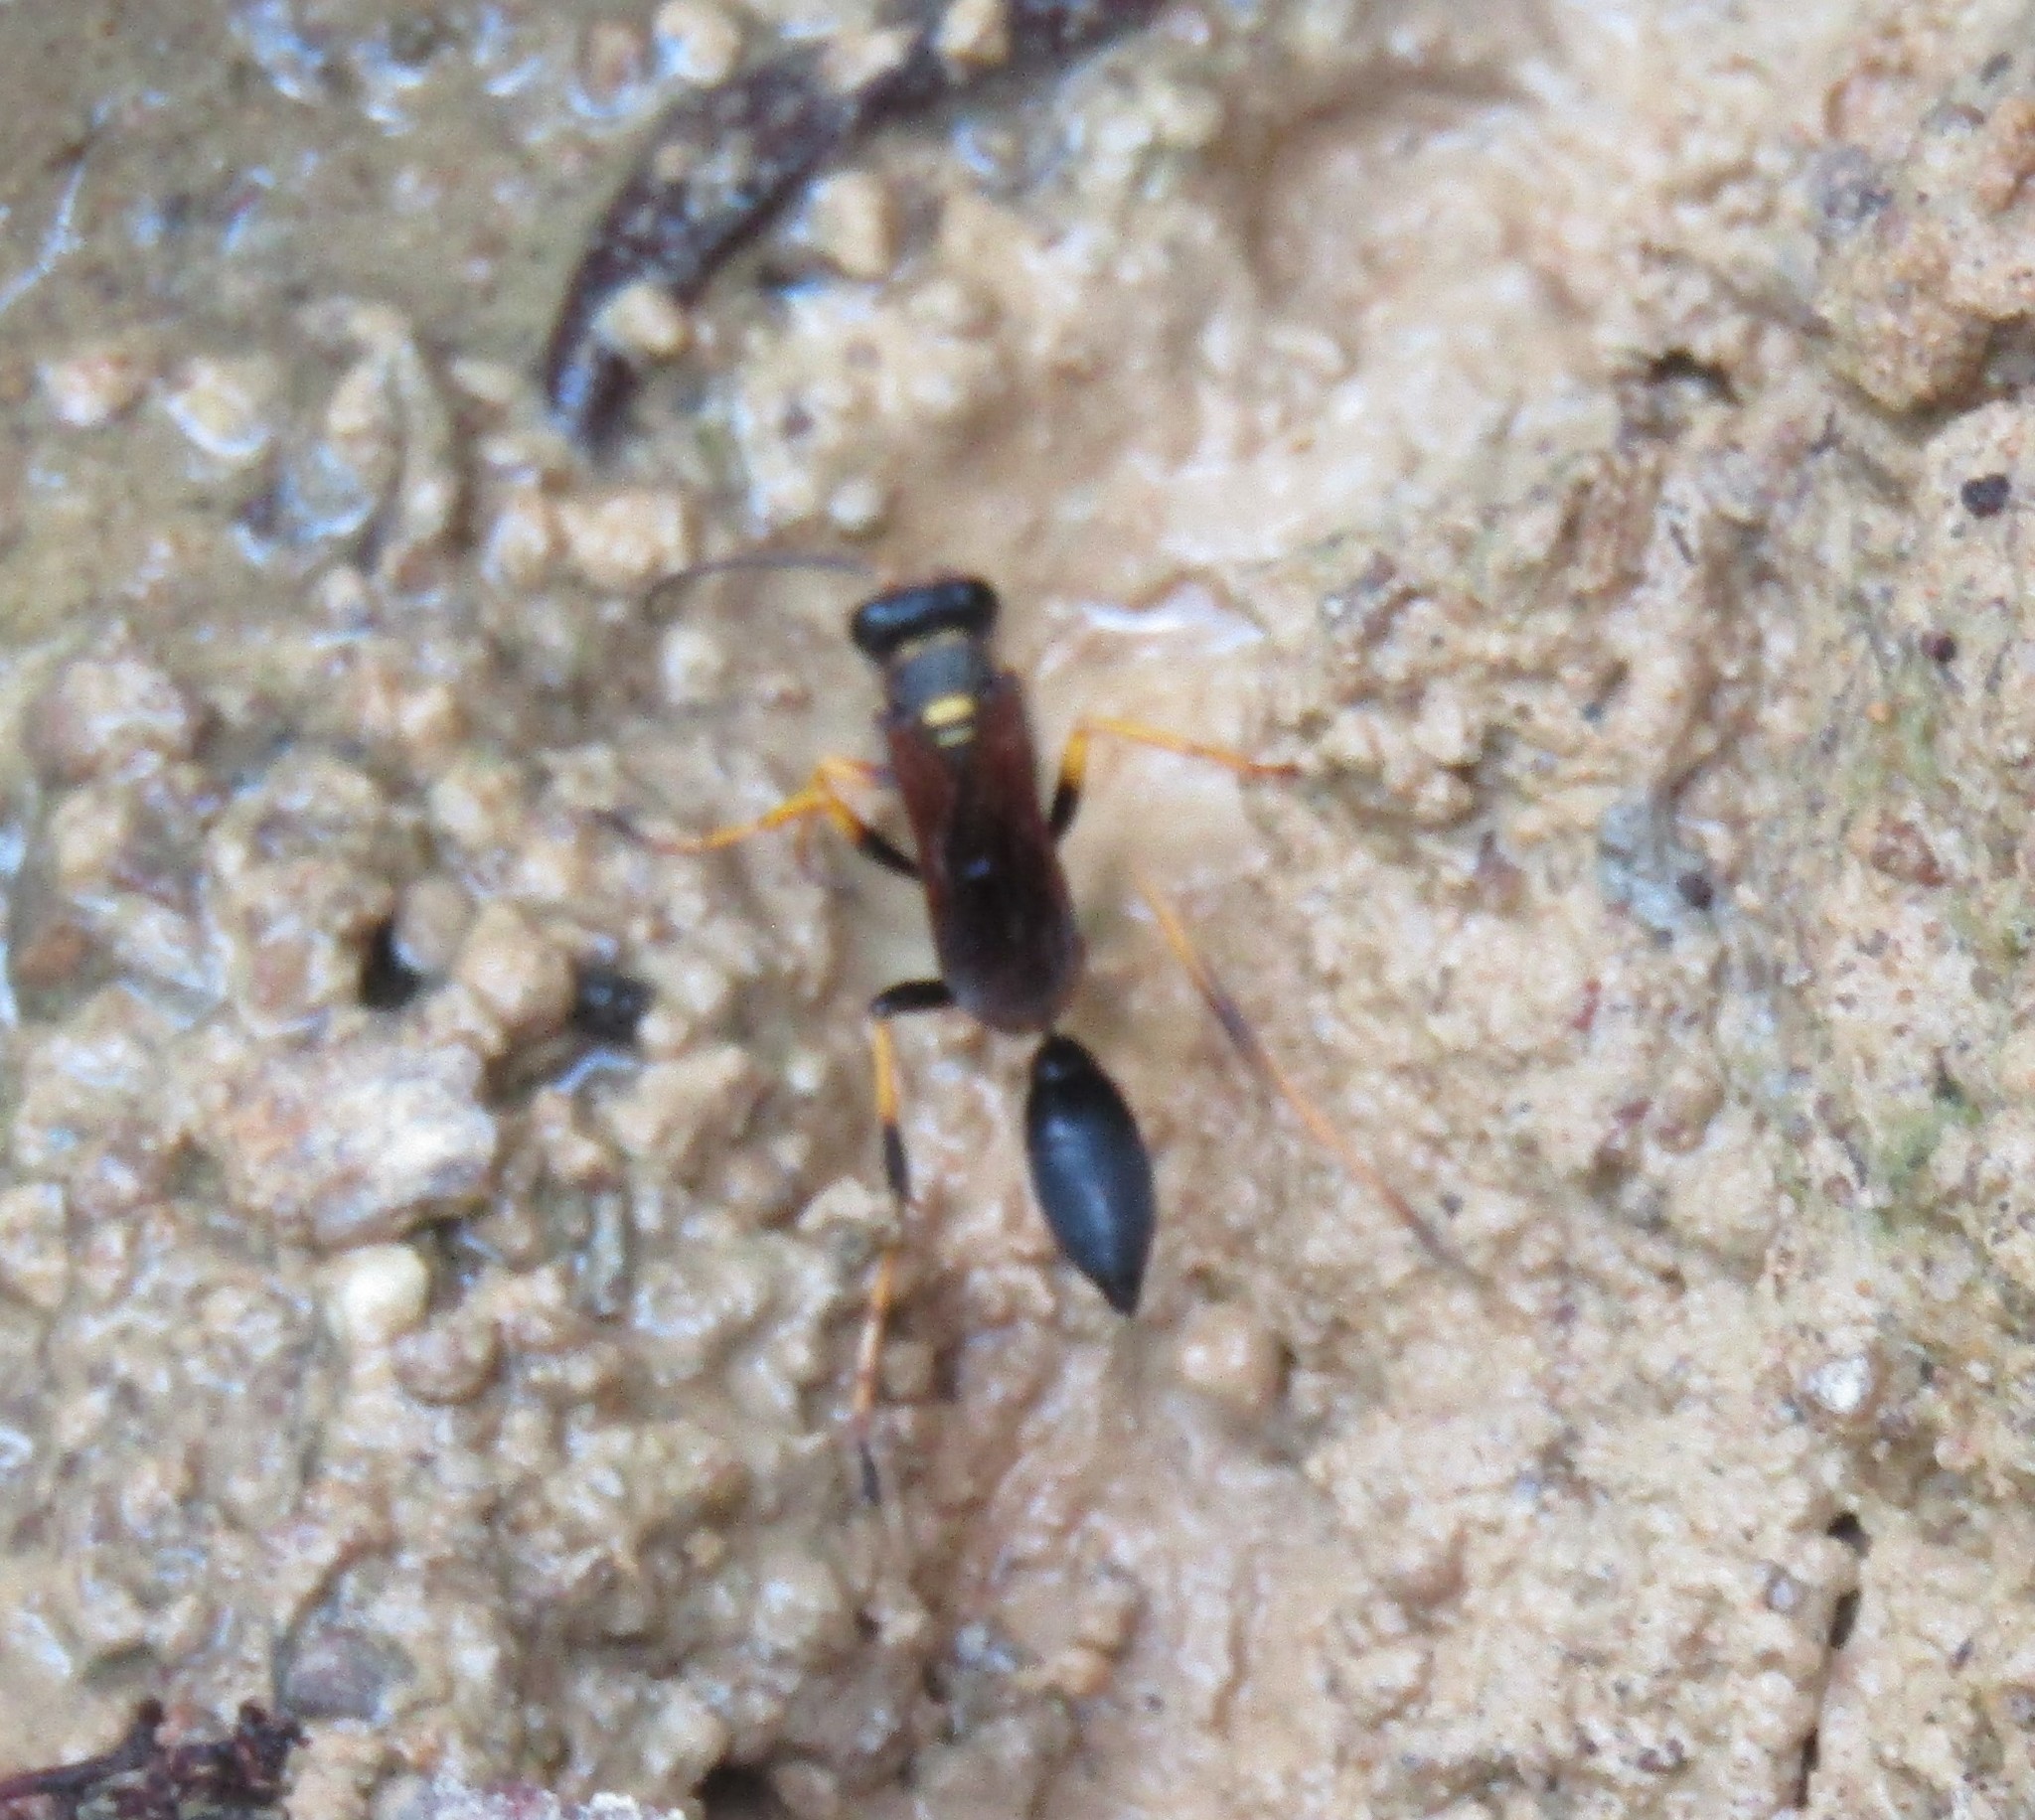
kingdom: Animalia
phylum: Arthropoda
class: Insecta
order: Hymenoptera
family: Sphecidae
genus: Sceliphron
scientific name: Sceliphron caementarium
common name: Mud dauber
